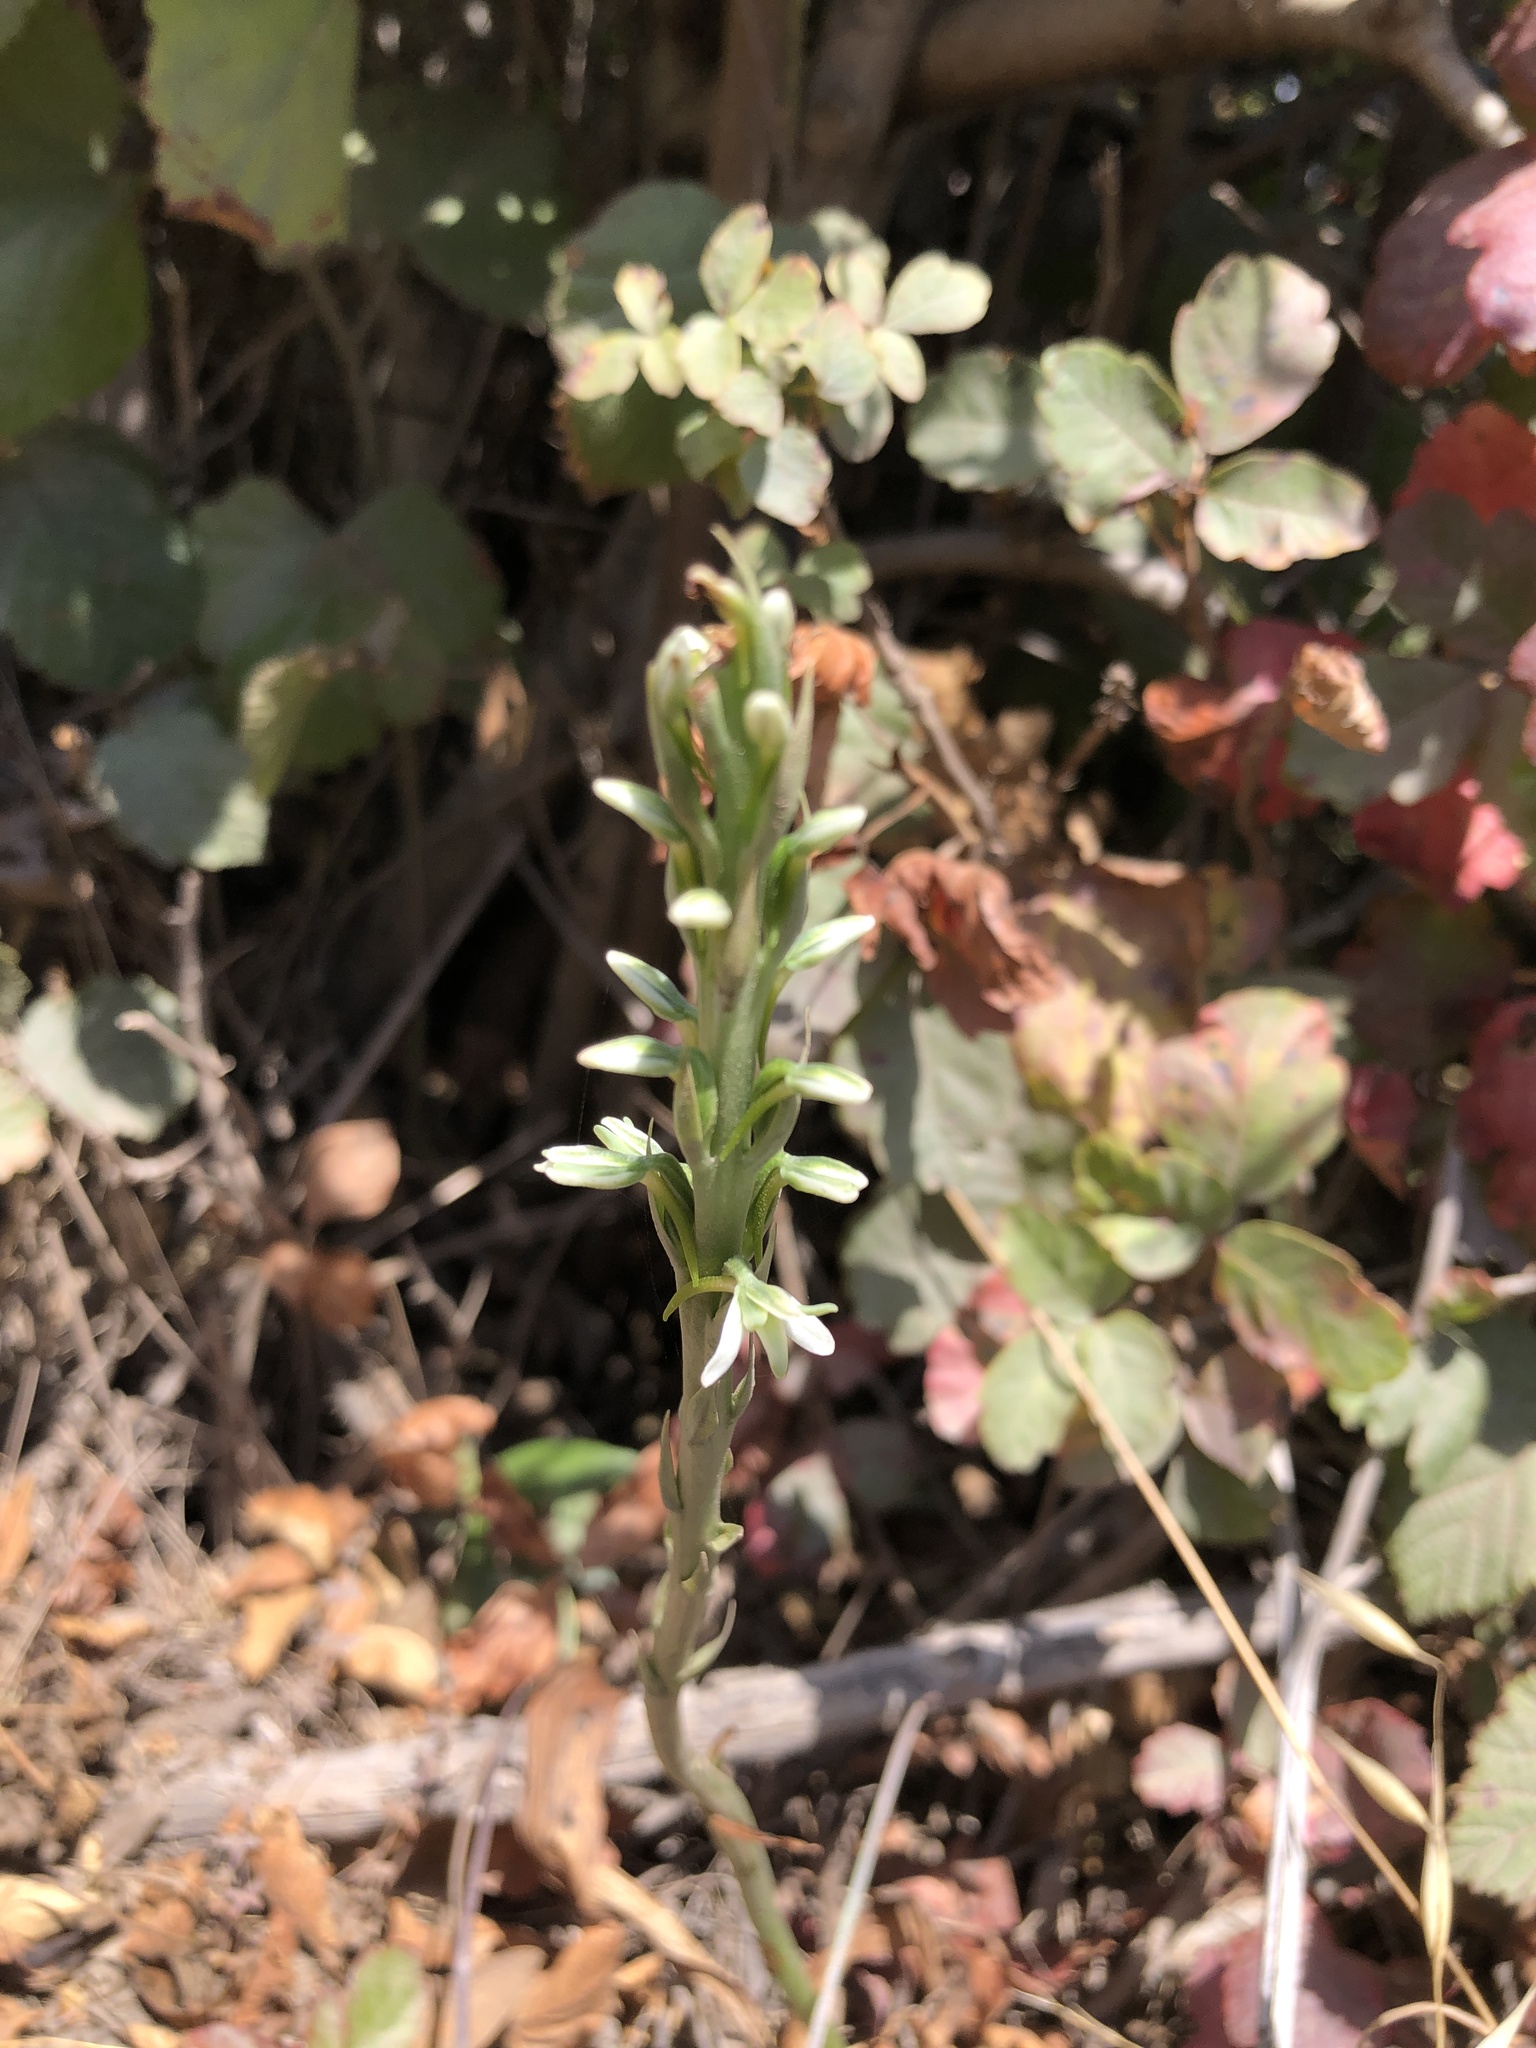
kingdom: Plantae
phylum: Tracheophyta
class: Liliopsida
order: Asparagales
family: Orchidaceae
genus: Platanthera
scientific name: Platanthera elegans
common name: Coast piperia
